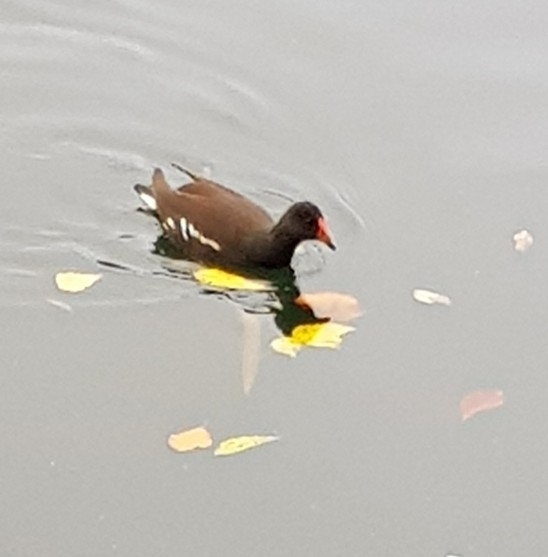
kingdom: Animalia
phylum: Chordata
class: Aves
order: Gruiformes
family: Rallidae
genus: Gallinula
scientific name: Gallinula chloropus
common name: Common moorhen
